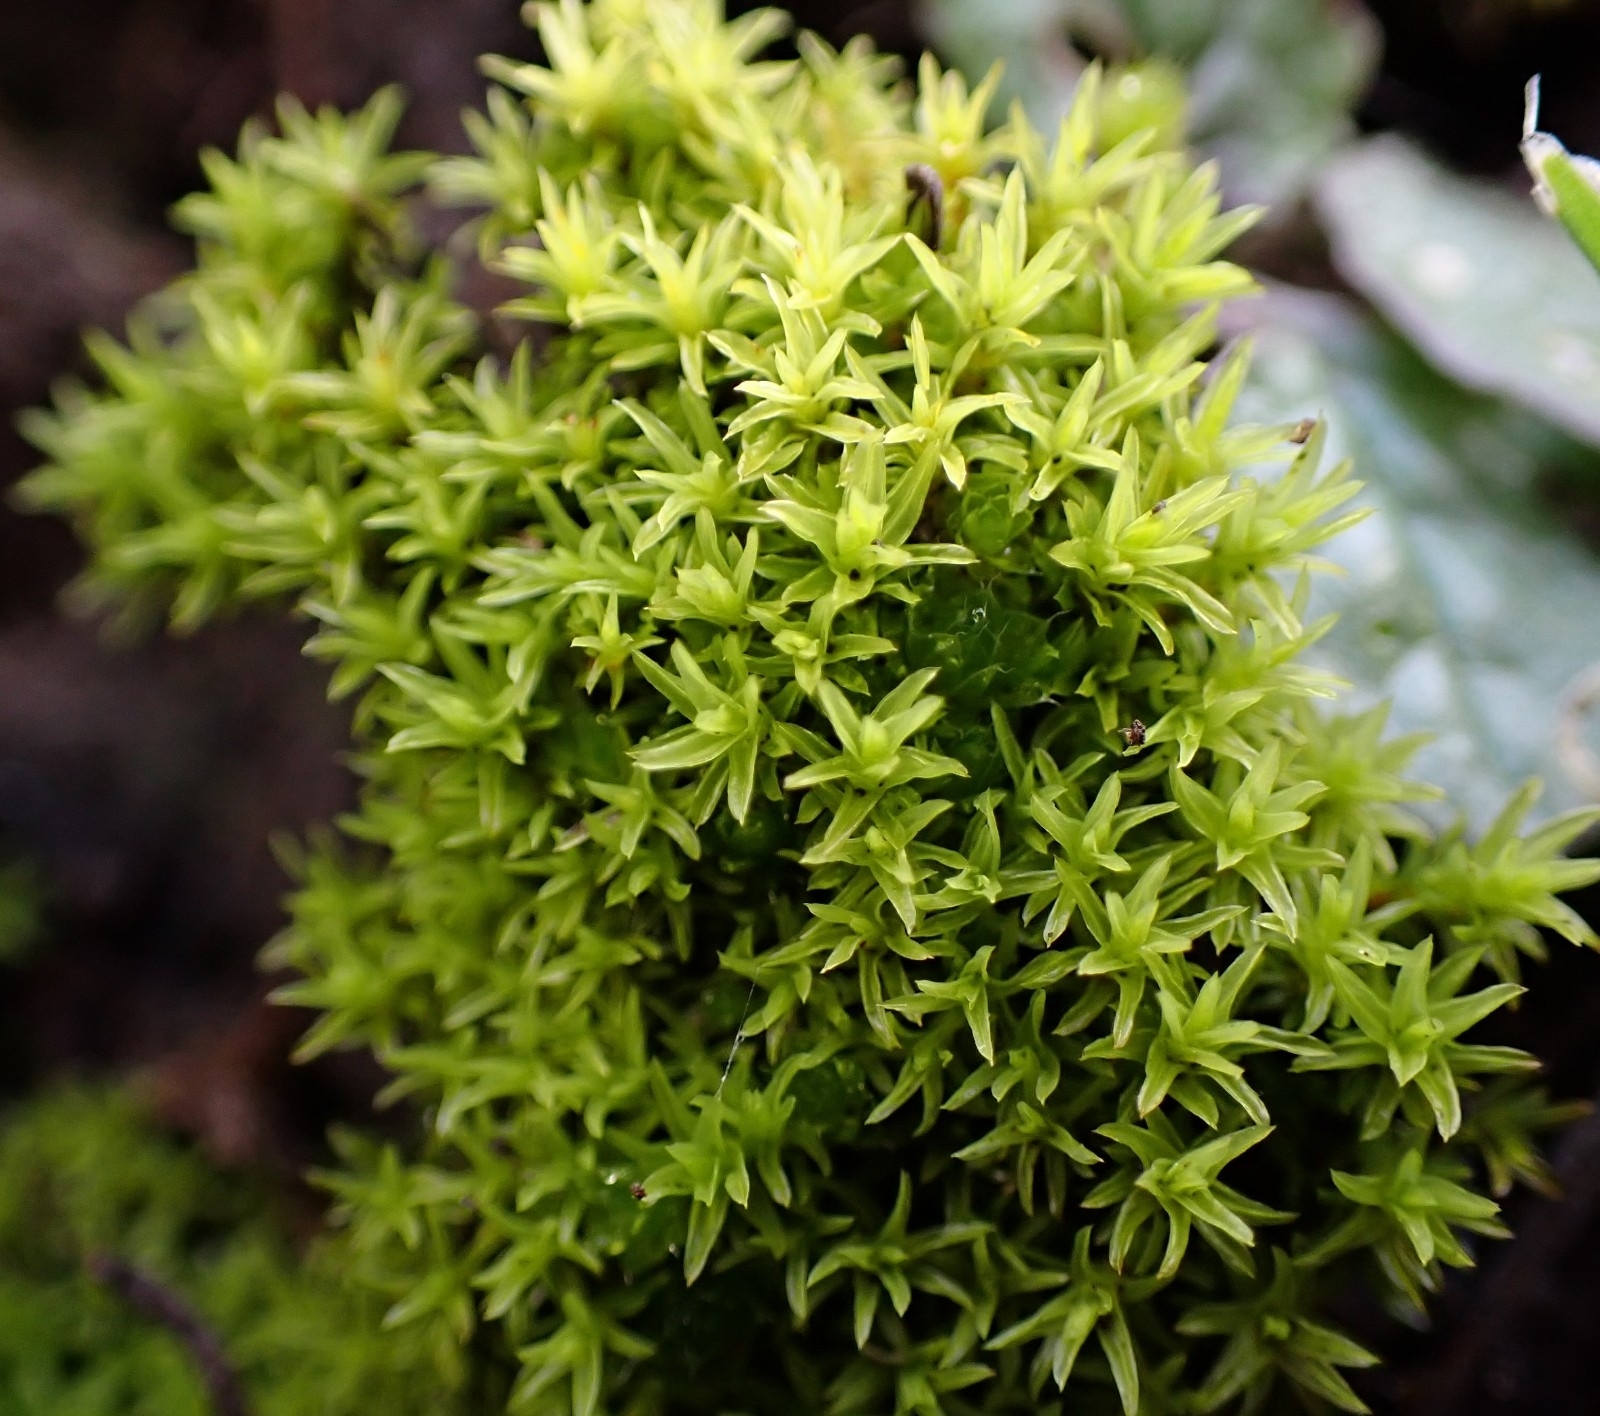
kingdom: Plantae
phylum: Bryophyta
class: Bryopsida
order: Pottiales
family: Pottiaceae
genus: Barbula
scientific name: Barbula unguiculata
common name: Prickly beard moss
